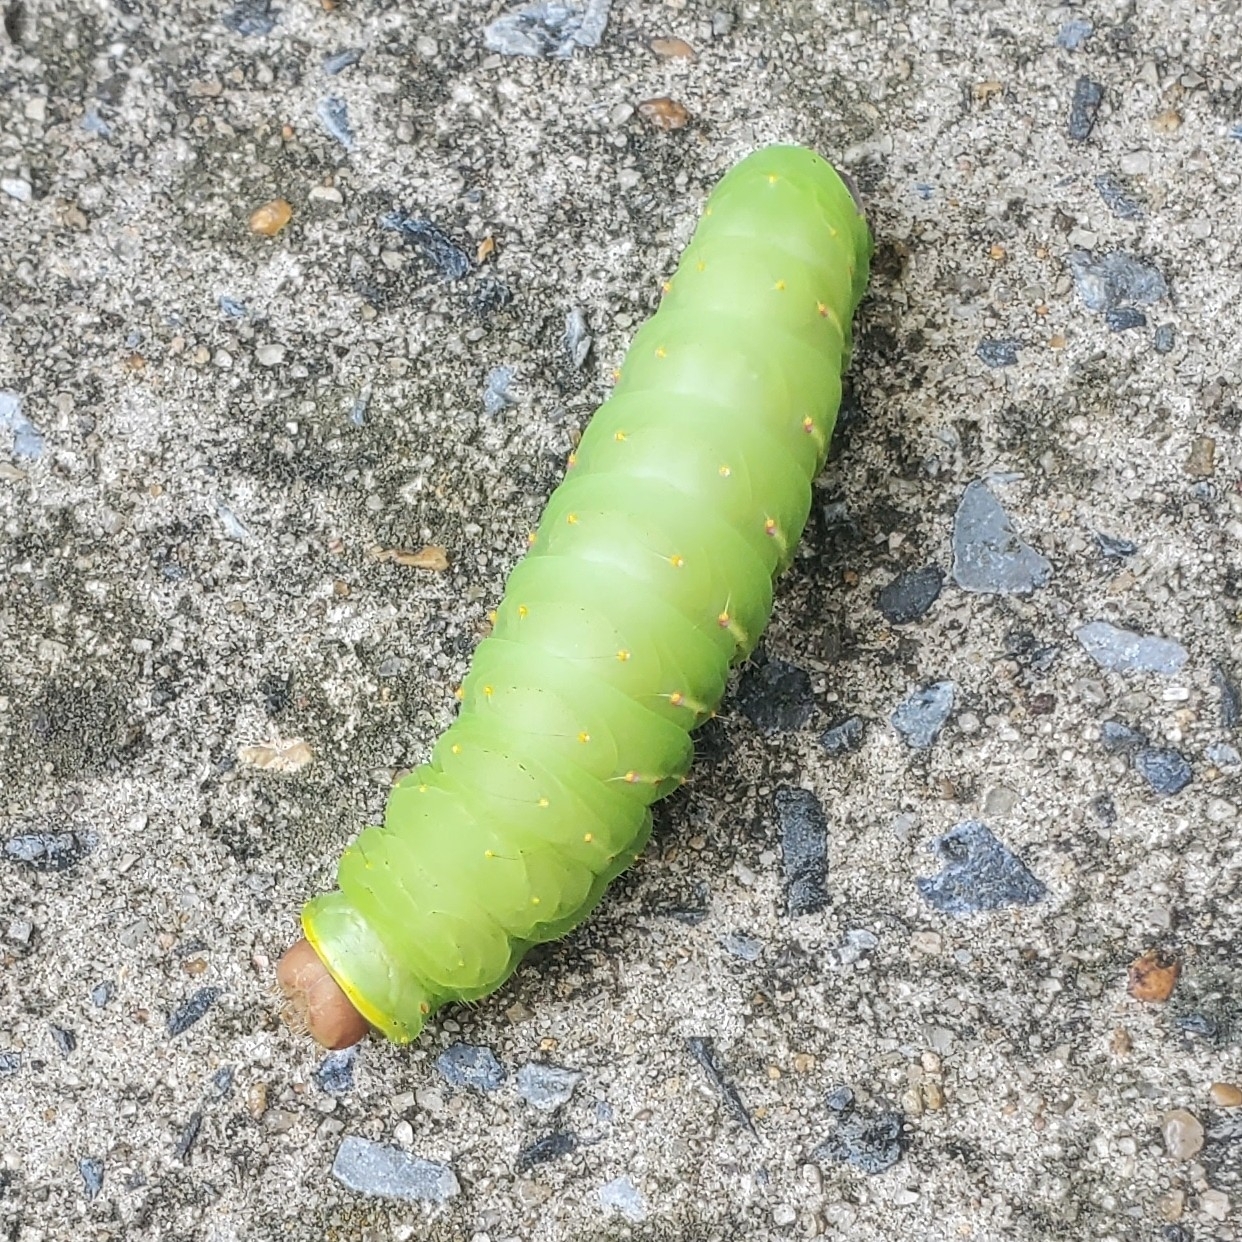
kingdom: Animalia
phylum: Arthropoda
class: Insecta
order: Lepidoptera
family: Saturniidae
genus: Antheraea
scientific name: Antheraea polyphemus
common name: Polyphemus moth
